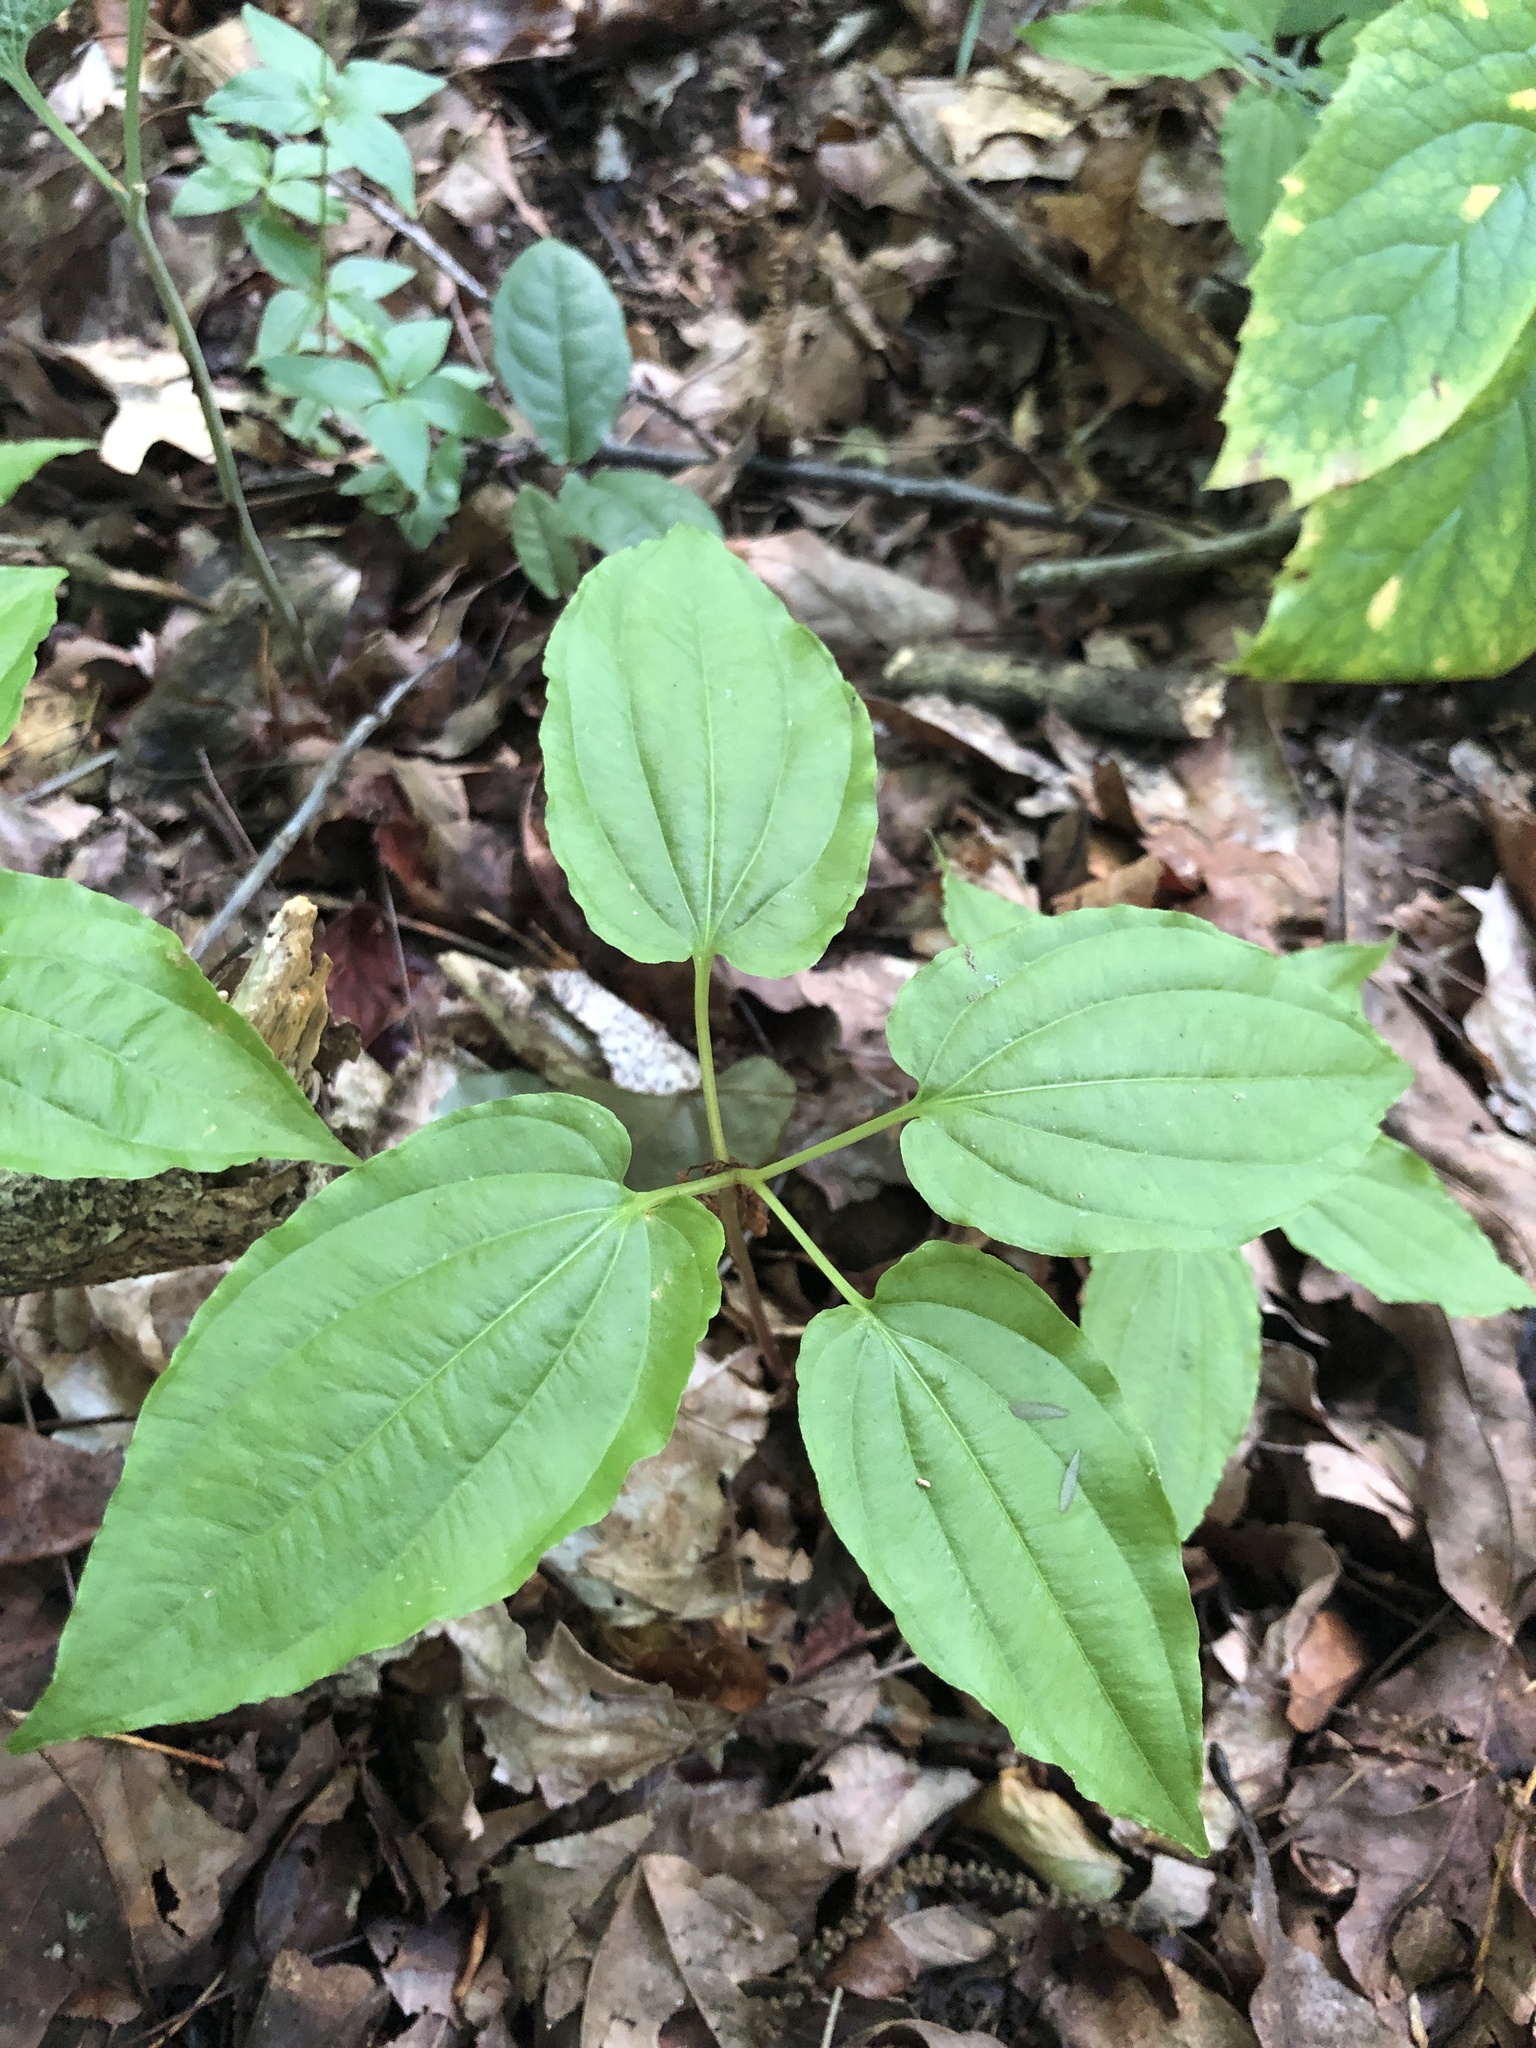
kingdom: Plantae
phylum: Tracheophyta
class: Liliopsida
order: Pandanales
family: Stemonaceae
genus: Croomia
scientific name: Croomia pauciflora
